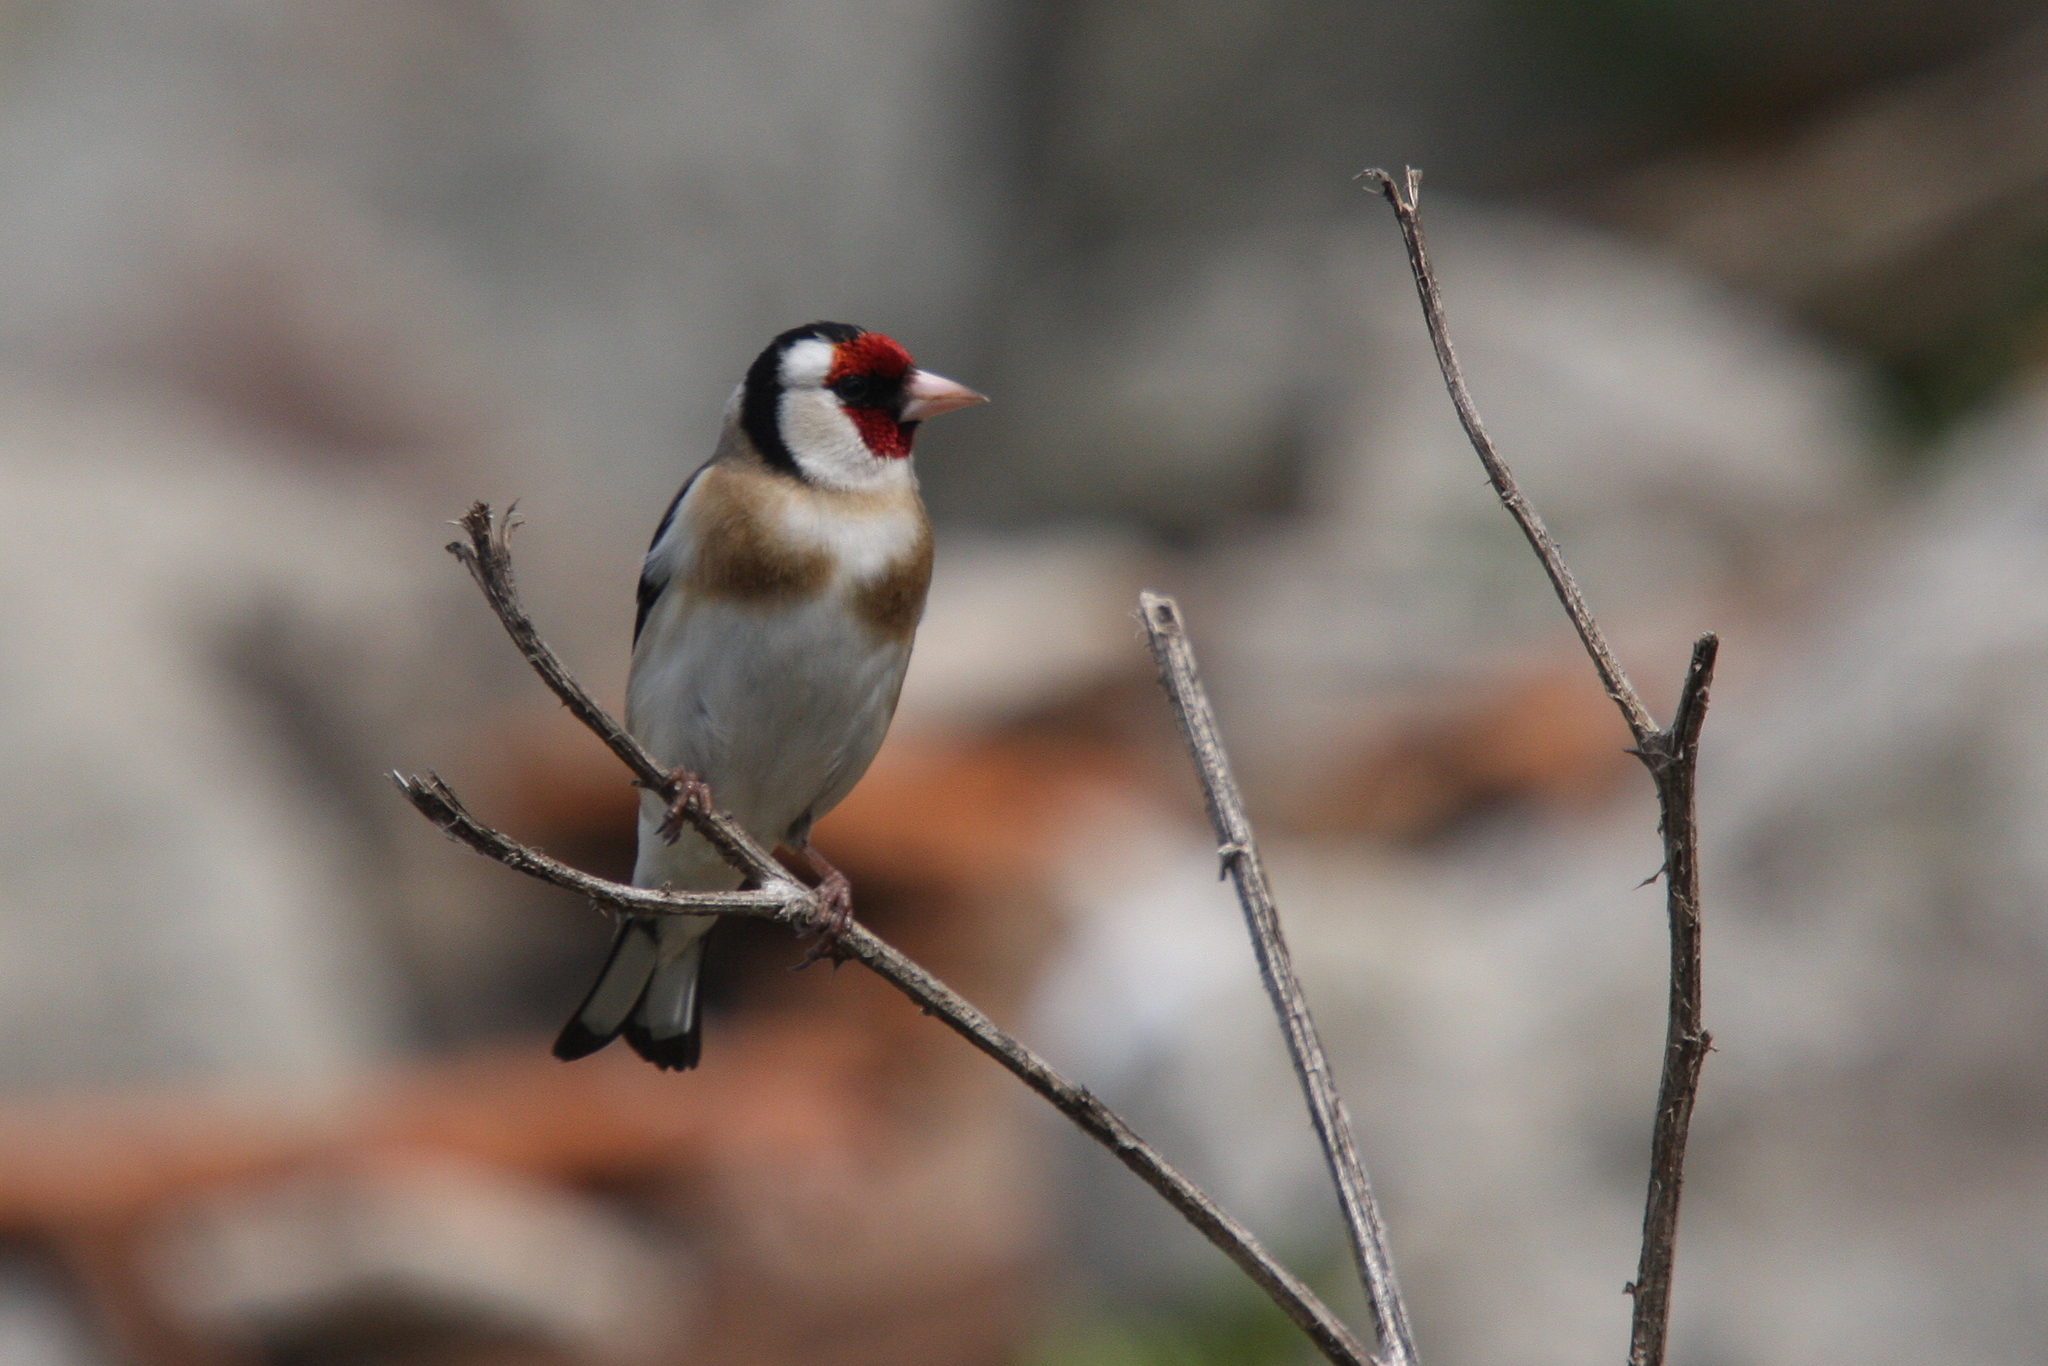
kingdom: Animalia
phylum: Chordata
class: Aves
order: Passeriformes
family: Fringillidae
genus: Carduelis
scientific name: Carduelis carduelis
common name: European goldfinch
